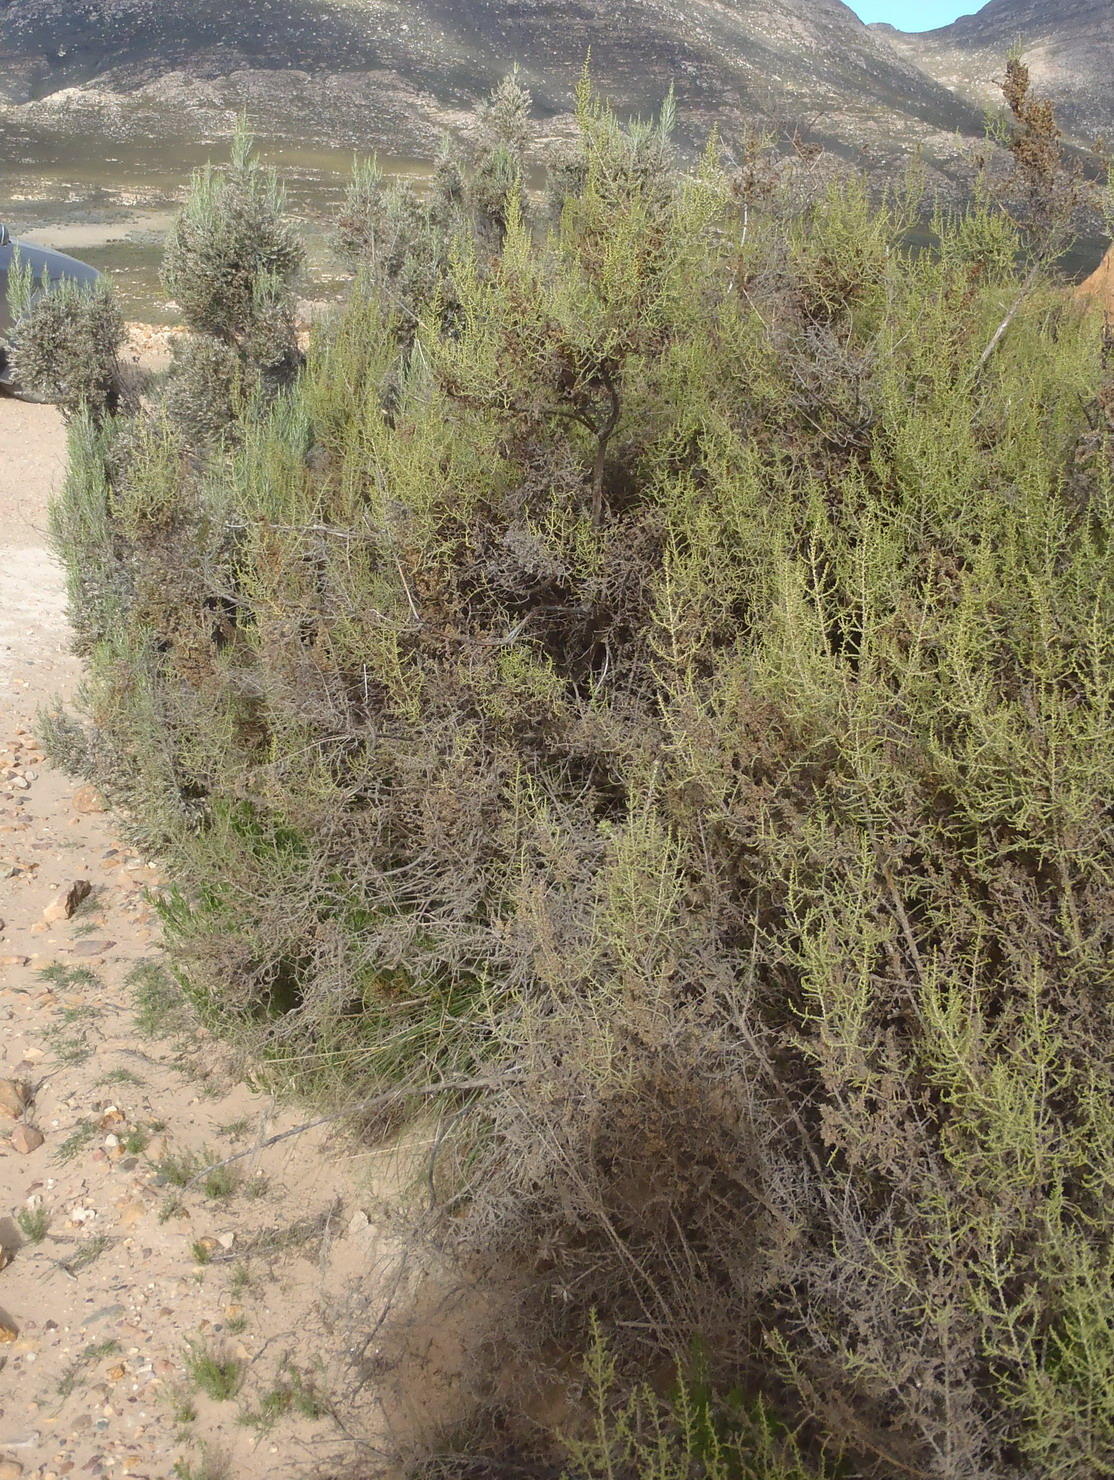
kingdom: Plantae
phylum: Tracheophyta
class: Magnoliopsida
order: Asterales
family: Asteraceae
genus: Dicerothamnus
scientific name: Dicerothamnus rhinocerotis
